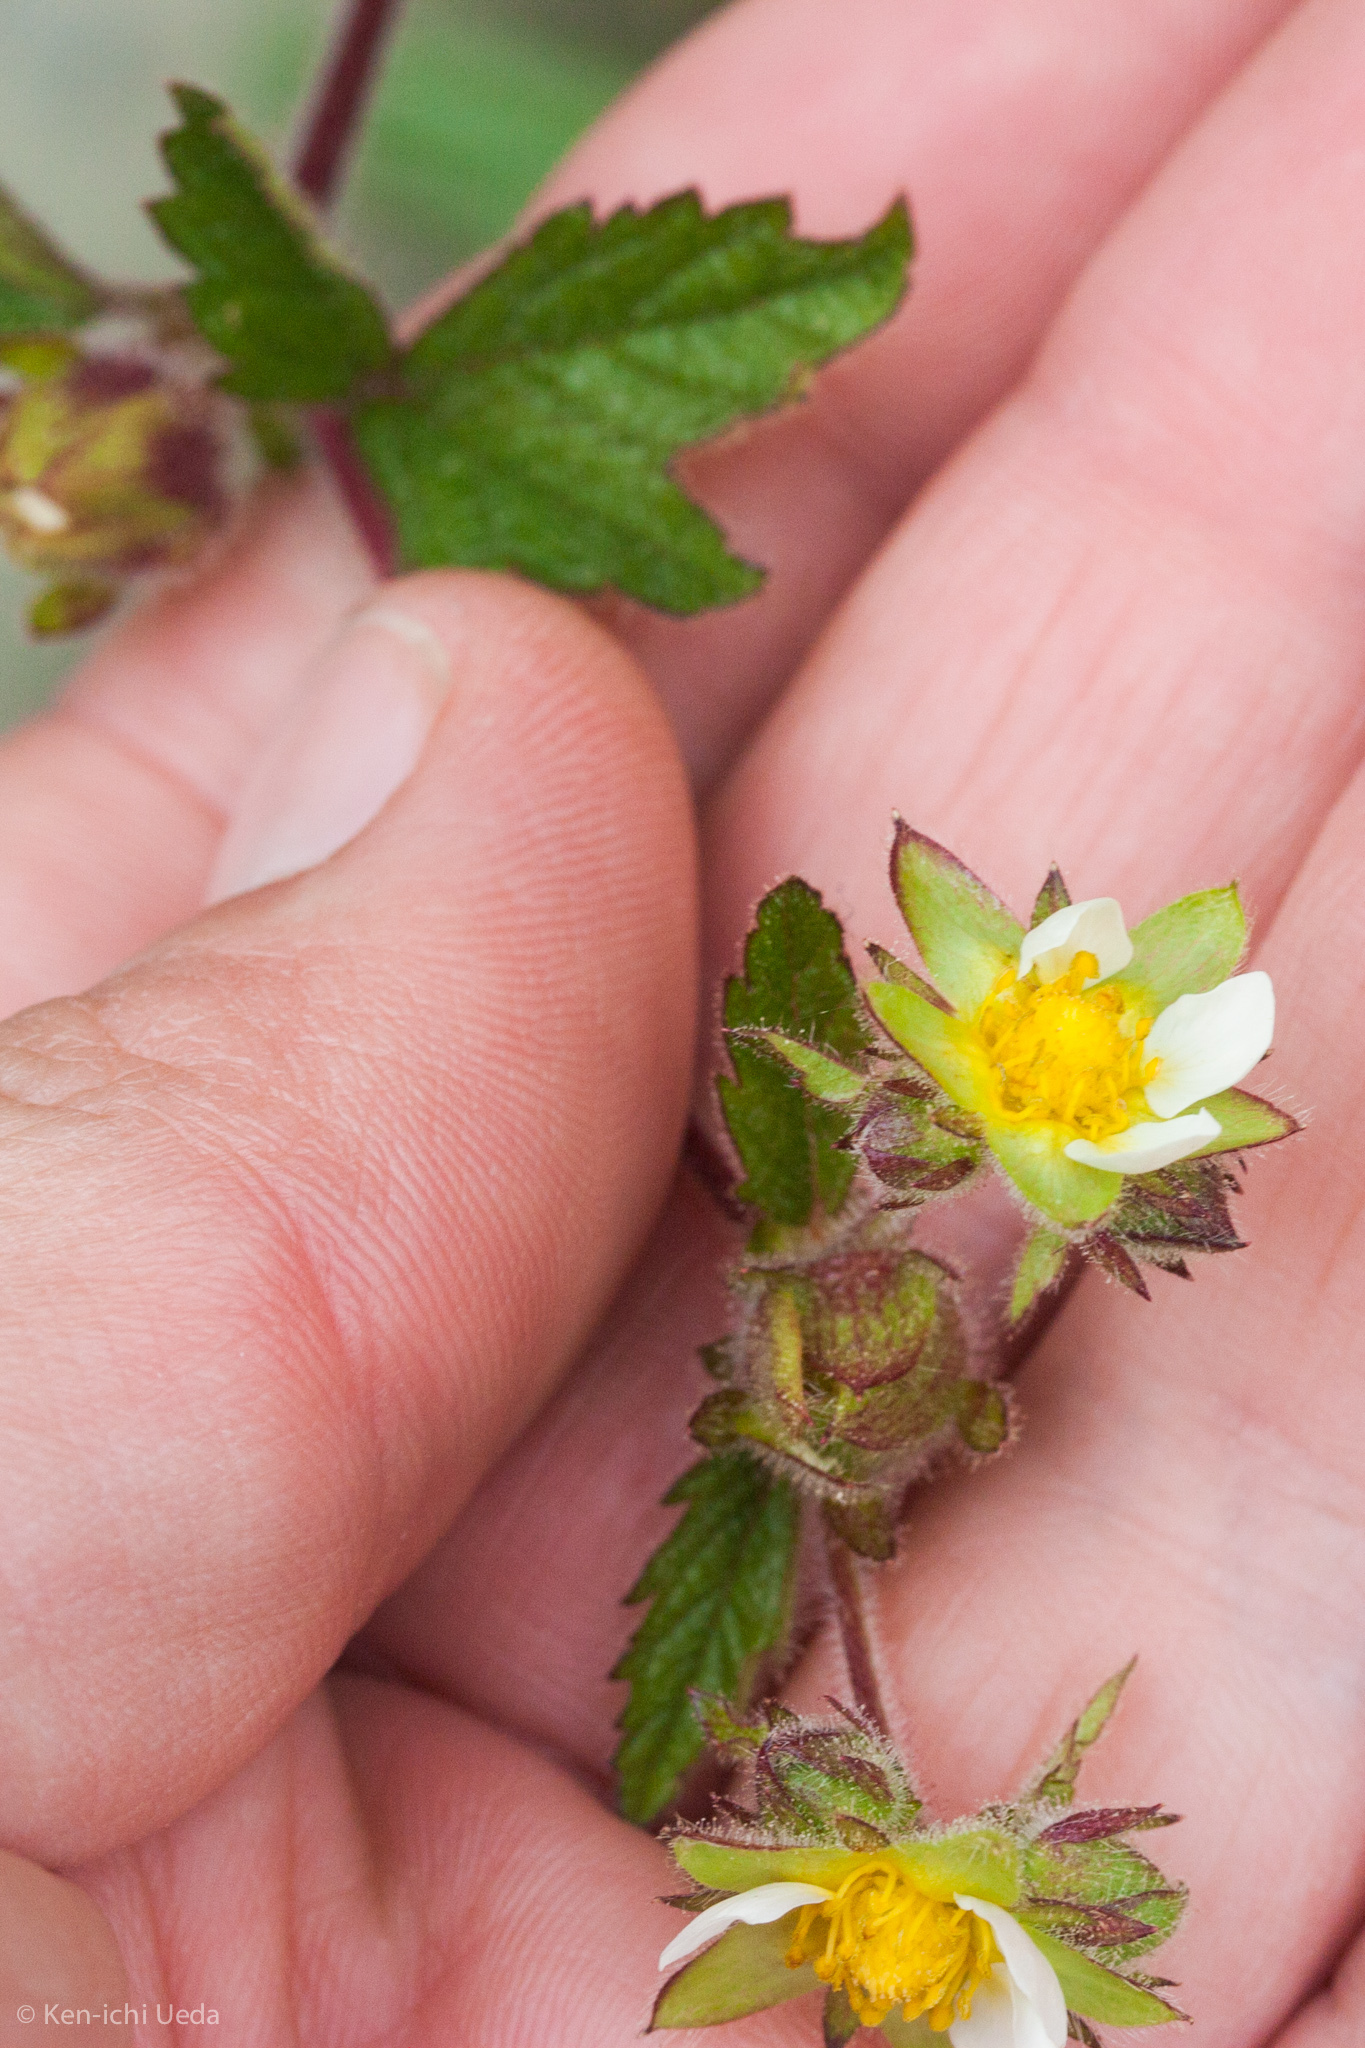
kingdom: Plantae
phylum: Tracheophyta
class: Magnoliopsida
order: Rosales
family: Rosaceae
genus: Drymocallis
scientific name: Drymocallis glandulosa
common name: Sticky cinquefoil
